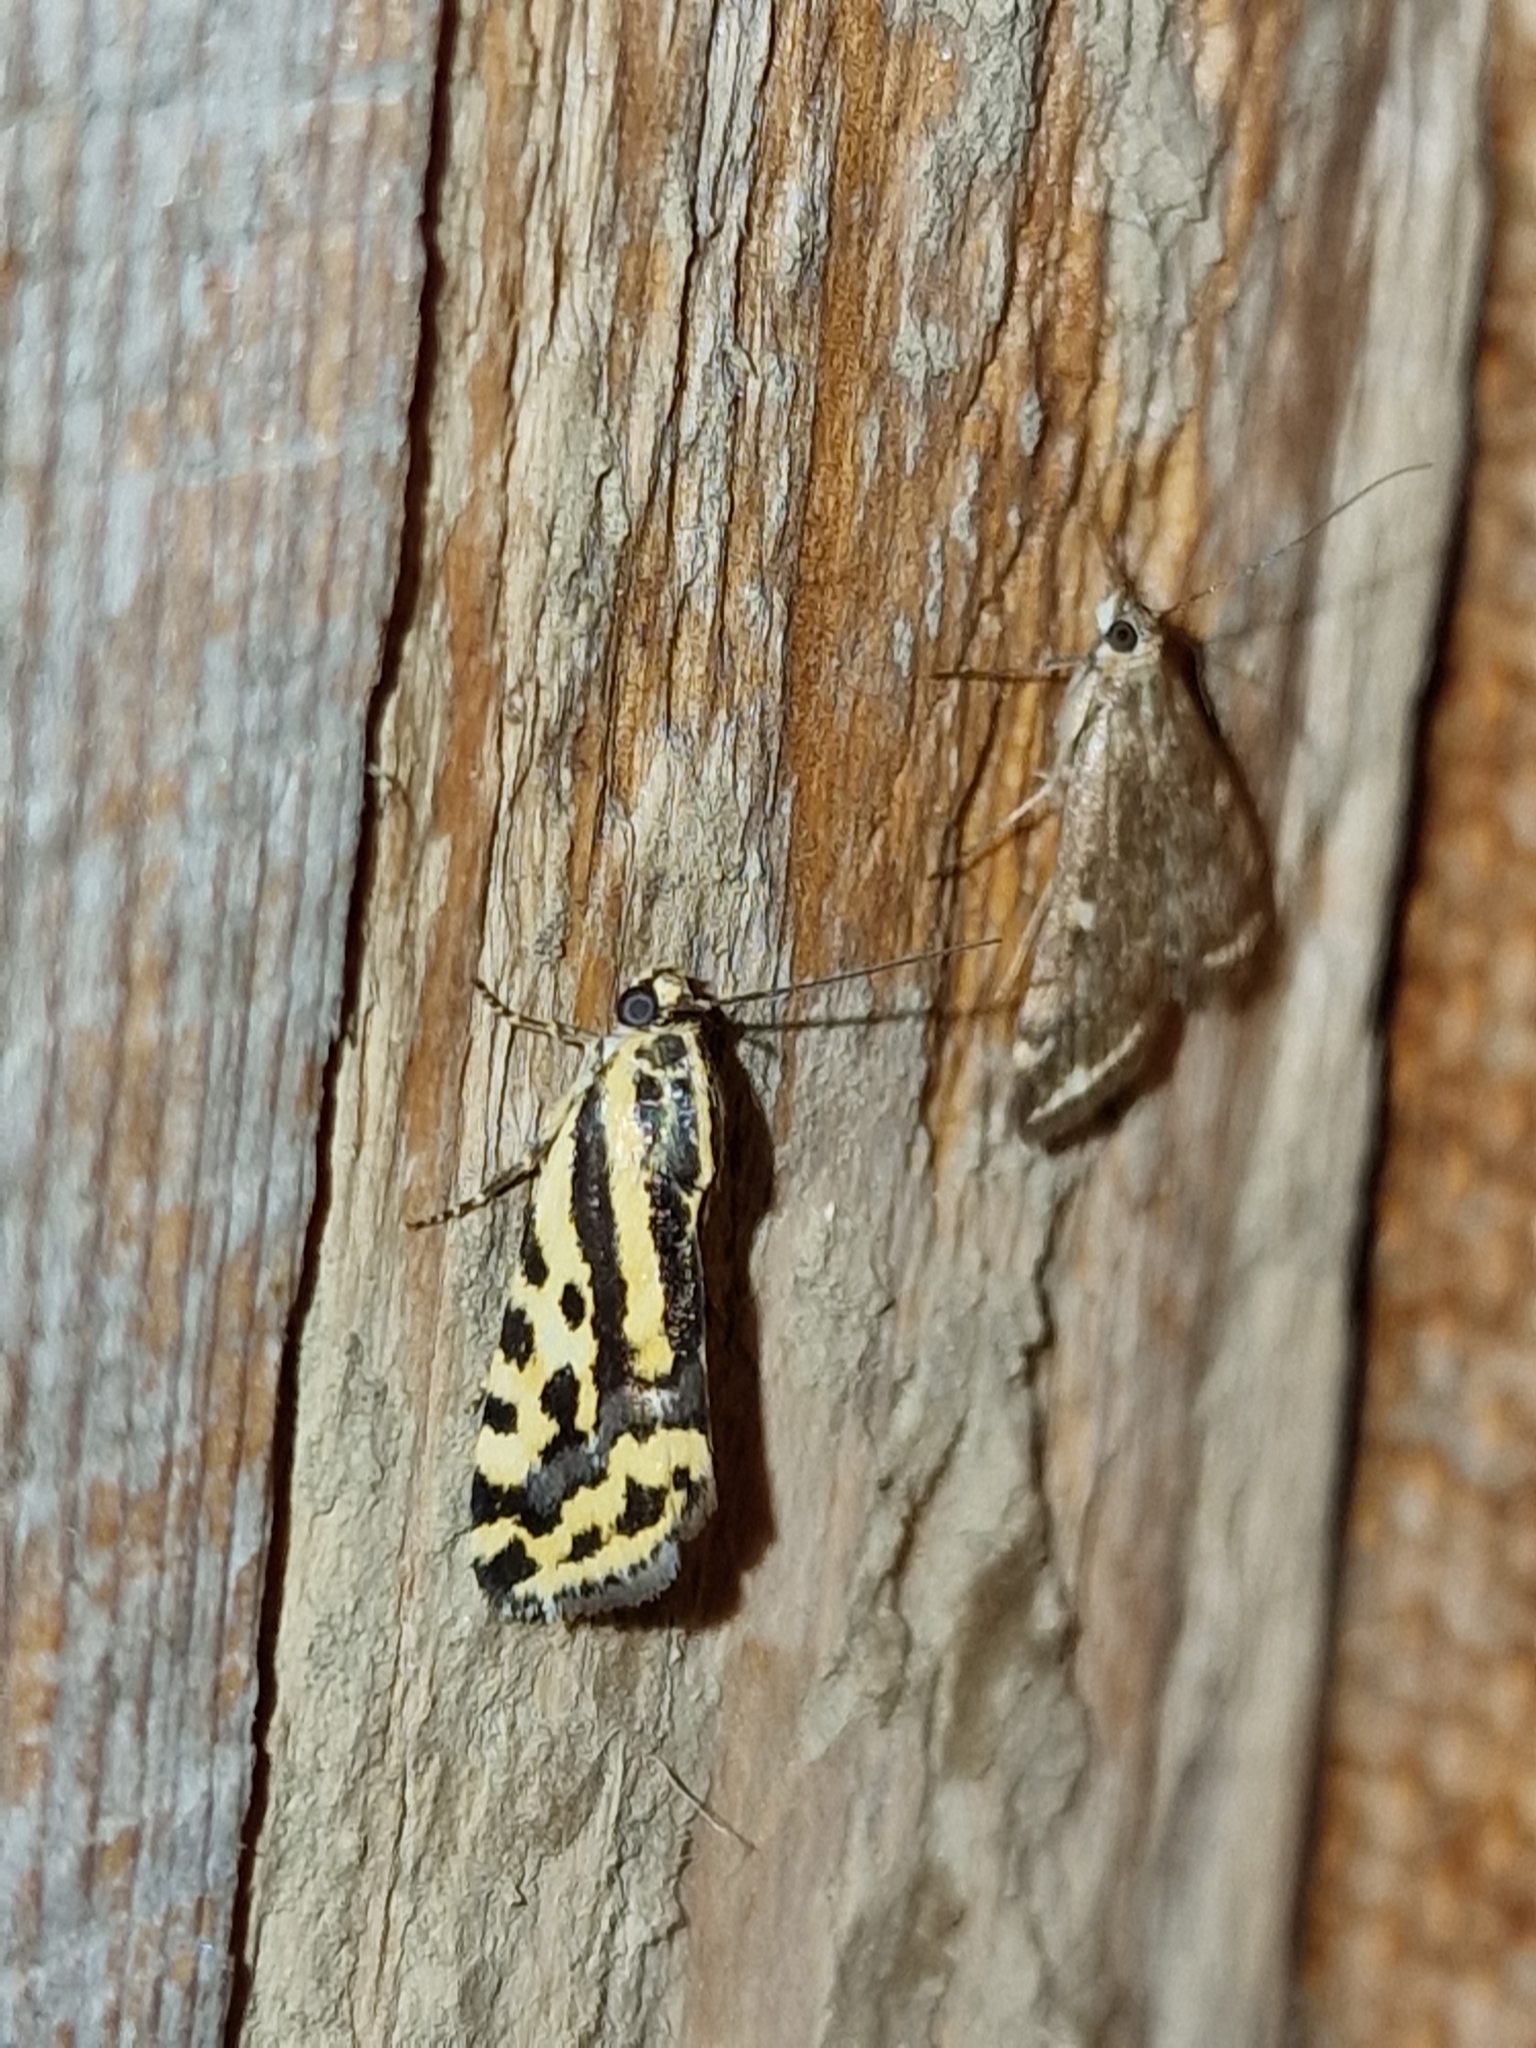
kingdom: Animalia
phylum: Arthropoda
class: Insecta
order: Lepidoptera
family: Noctuidae
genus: Acontia
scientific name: Acontia trabealis
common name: Spotted sulphur
